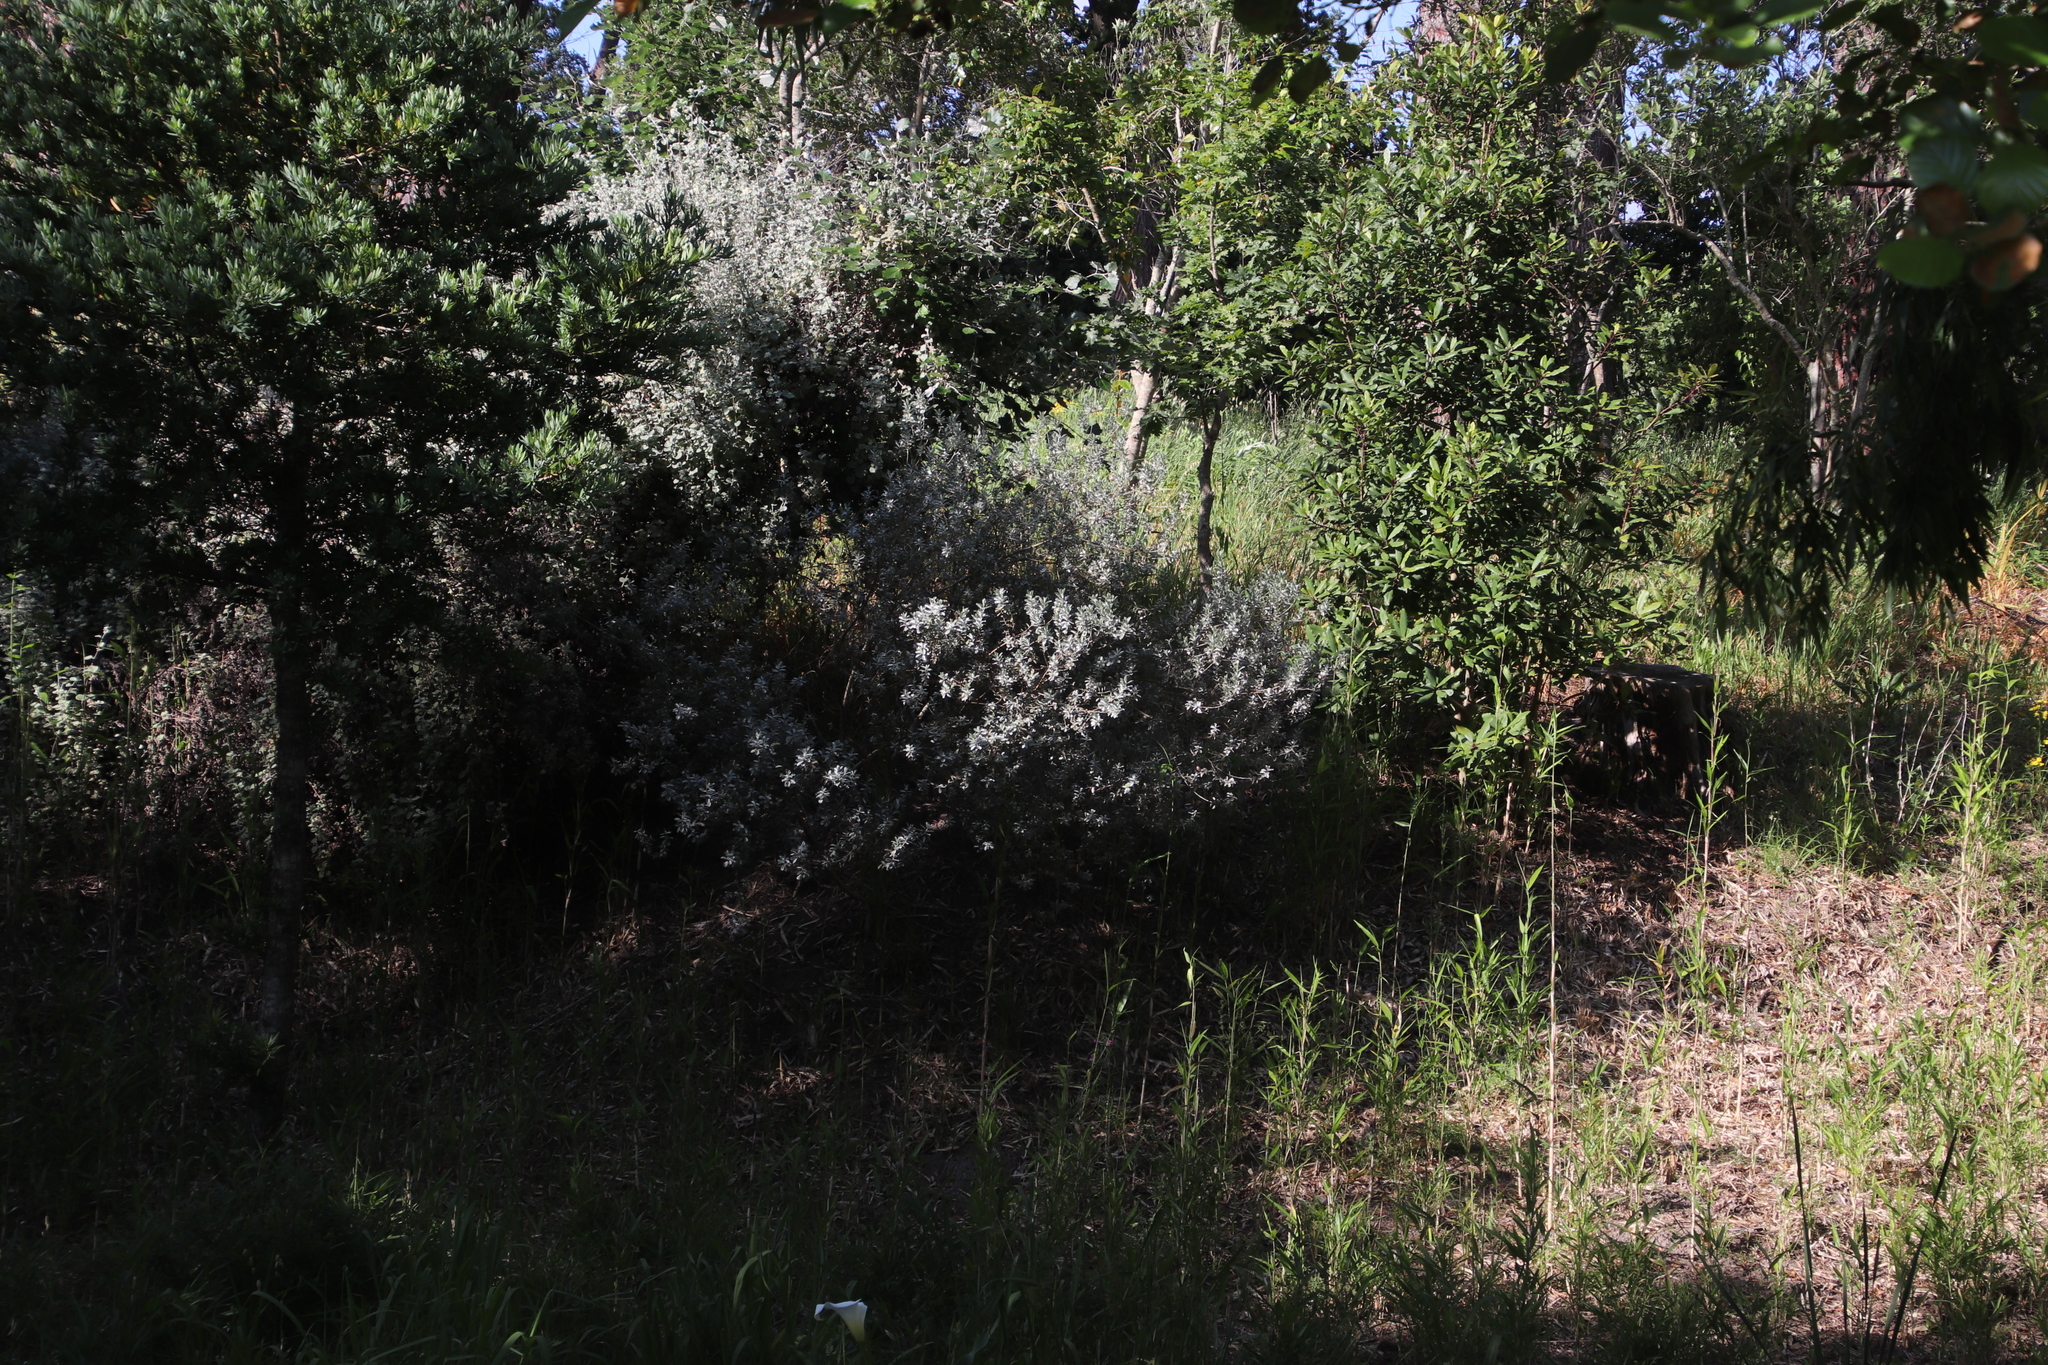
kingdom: Plantae
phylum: Tracheophyta
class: Magnoliopsida
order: Fabales
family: Fabaceae
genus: Podalyria
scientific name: Podalyria sericea
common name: Silver podalyria
